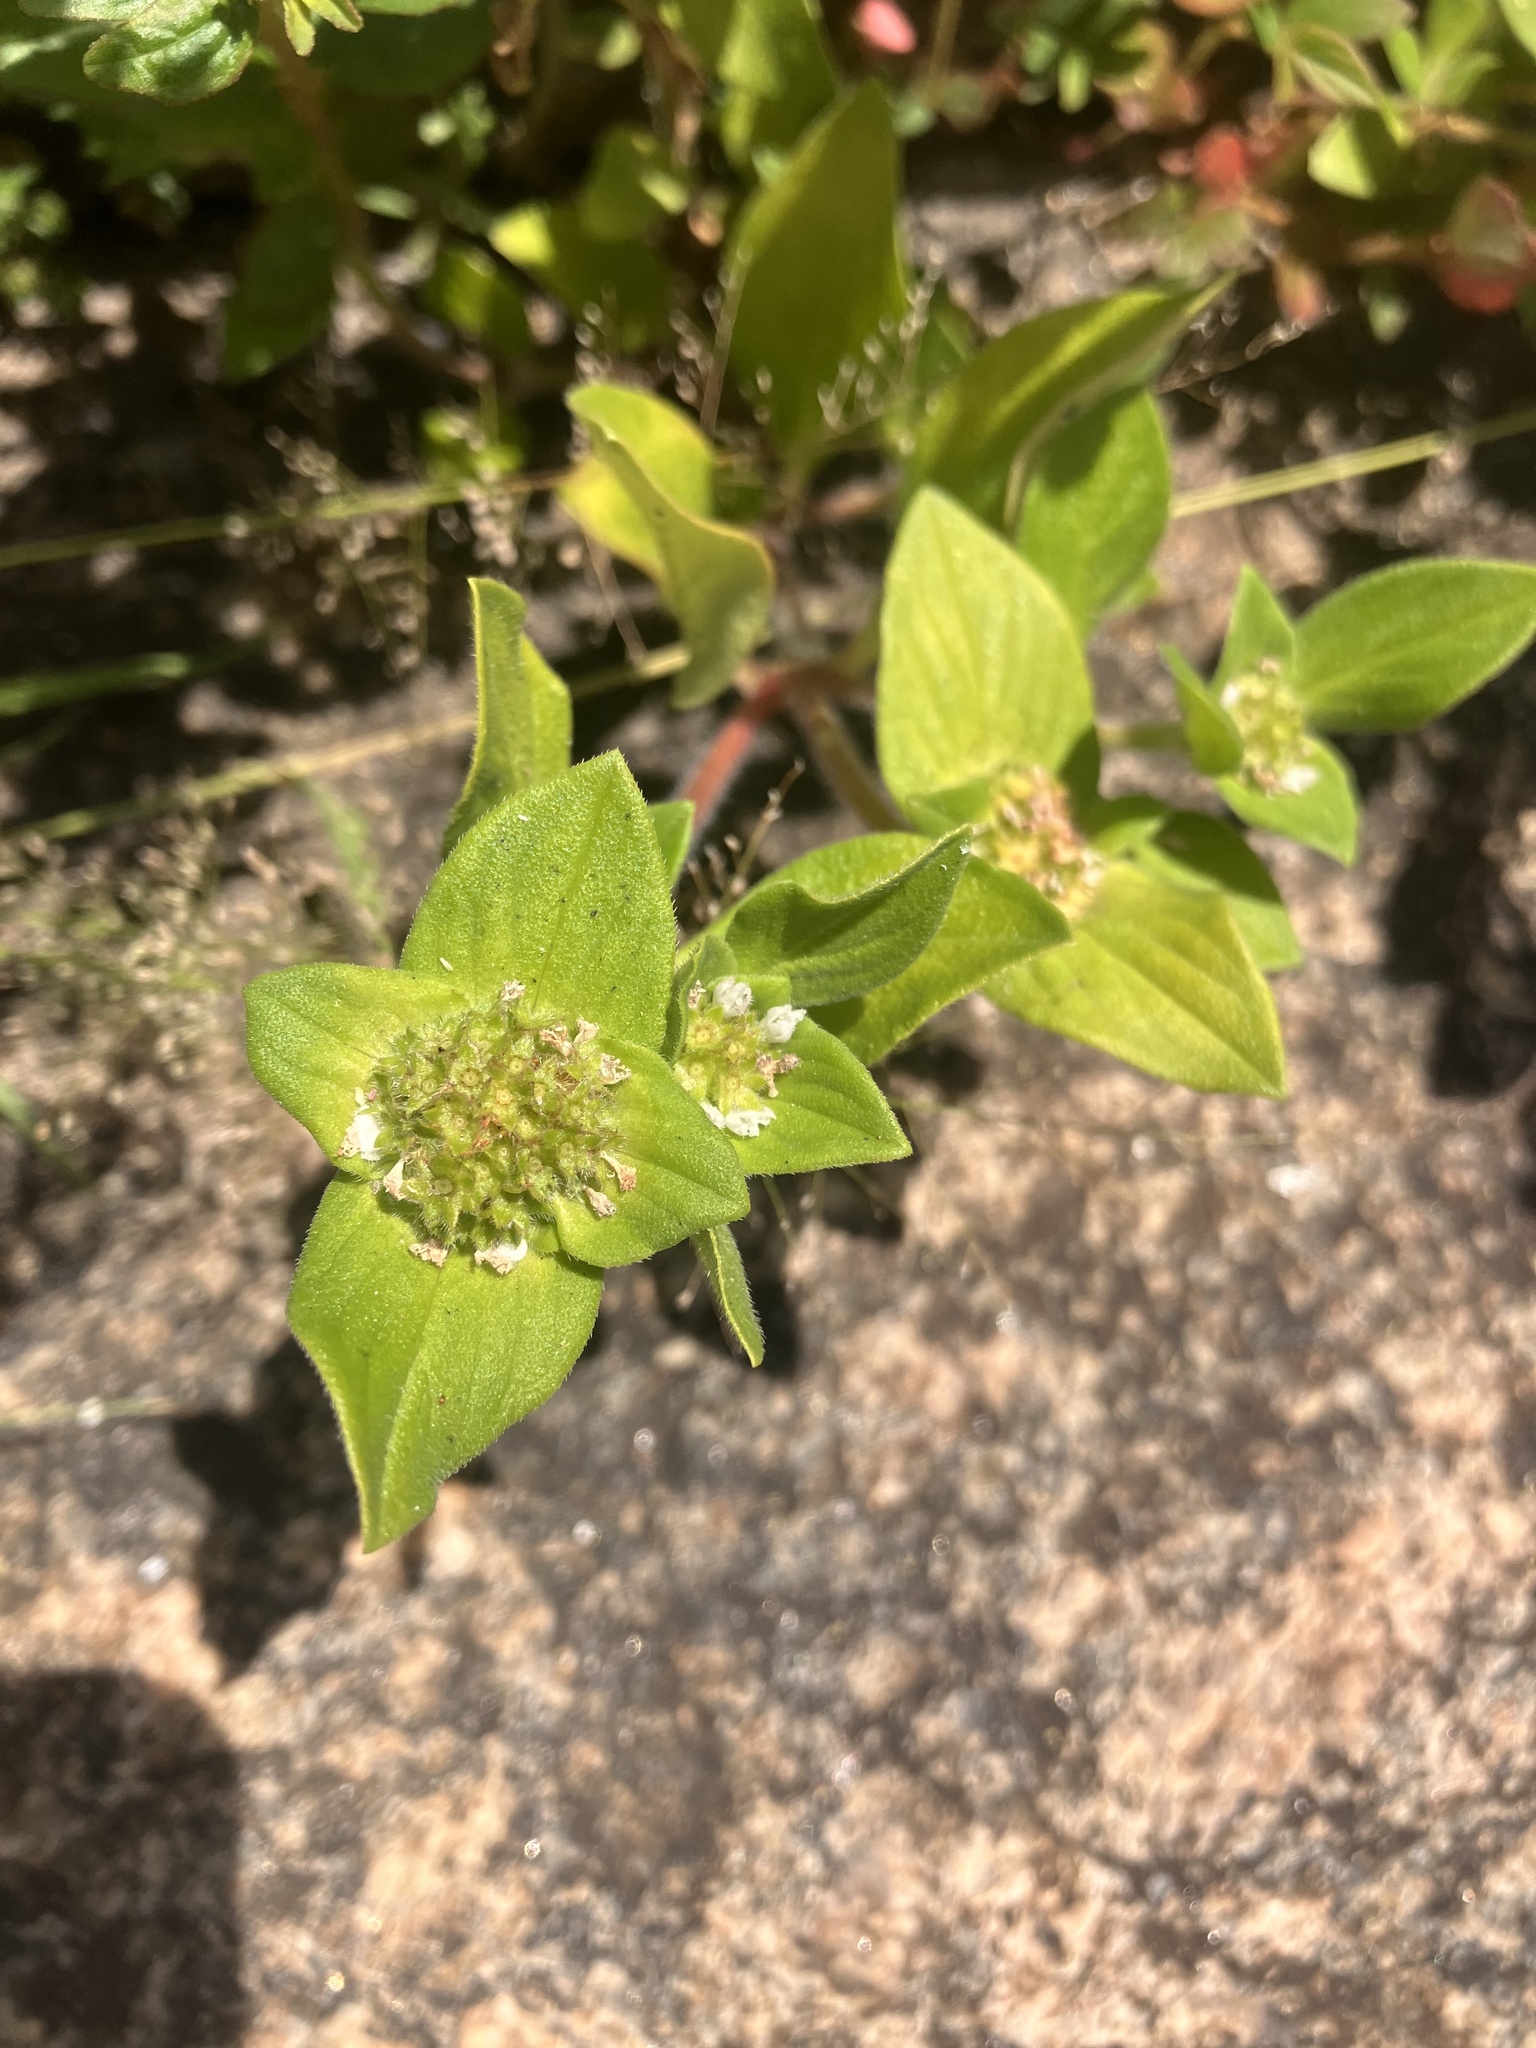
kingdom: Plantae
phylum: Tracheophyta
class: Magnoliopsida
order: Gentianales
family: Rubiaceae
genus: Richardia
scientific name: Richardia brasiliensis
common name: Tropical mexican clover
